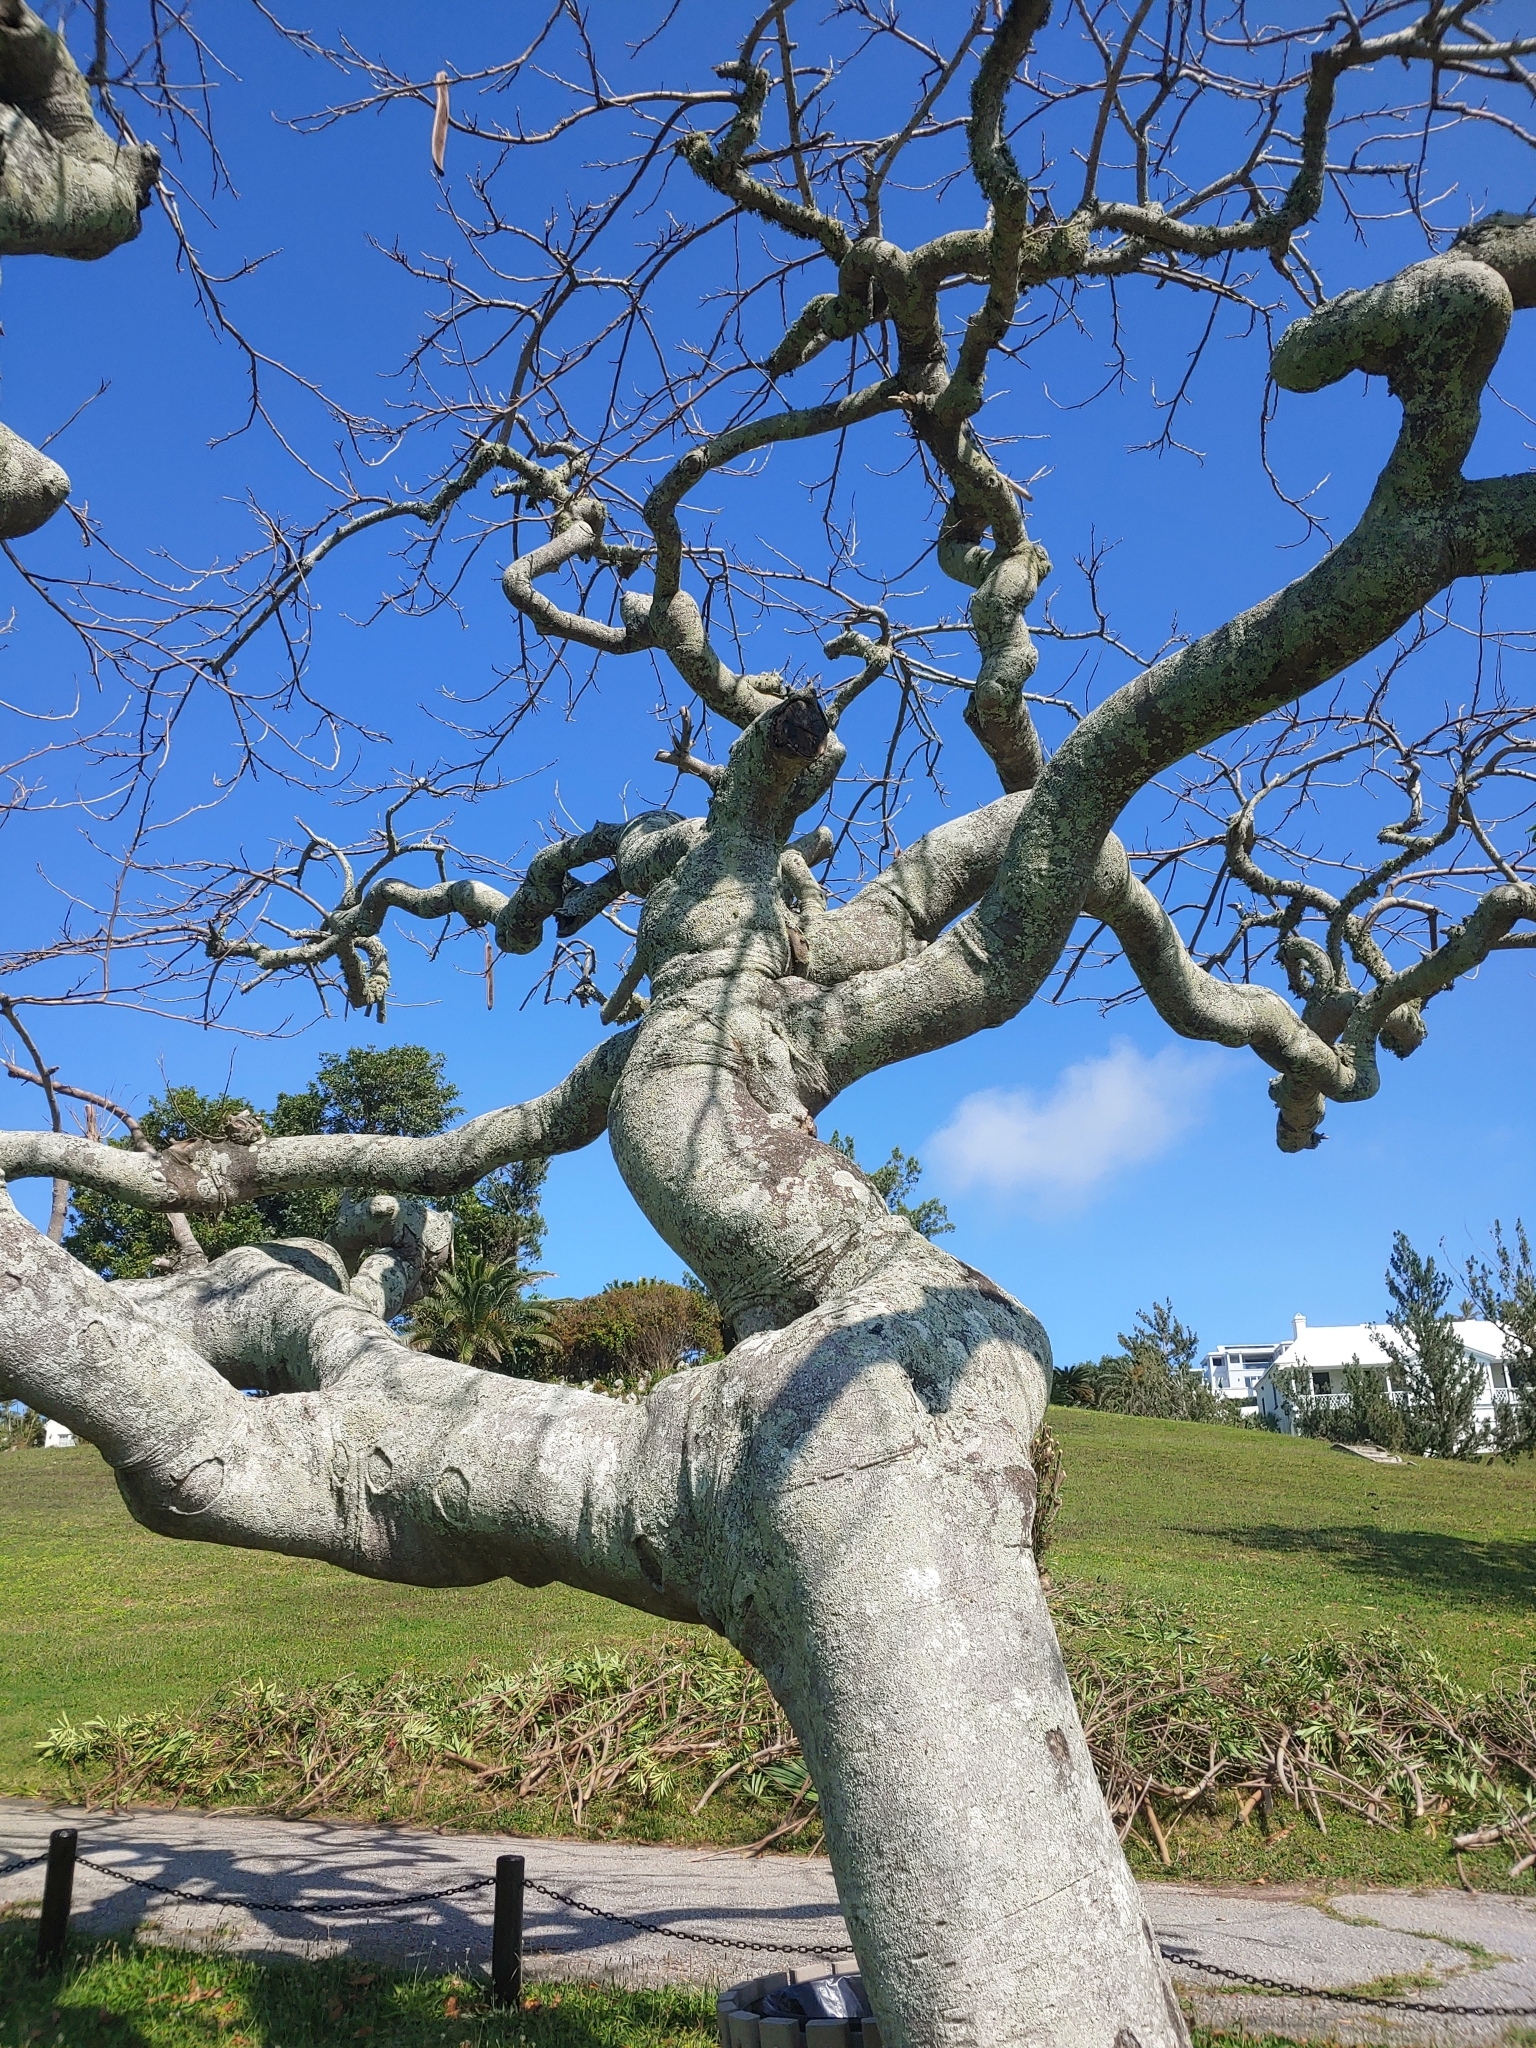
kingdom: Plantae
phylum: Tracheophyta
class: Magnoliopsida
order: Fabales
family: Fabaceae
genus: Delonix
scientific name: Delonix regia
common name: Royal poinciana
